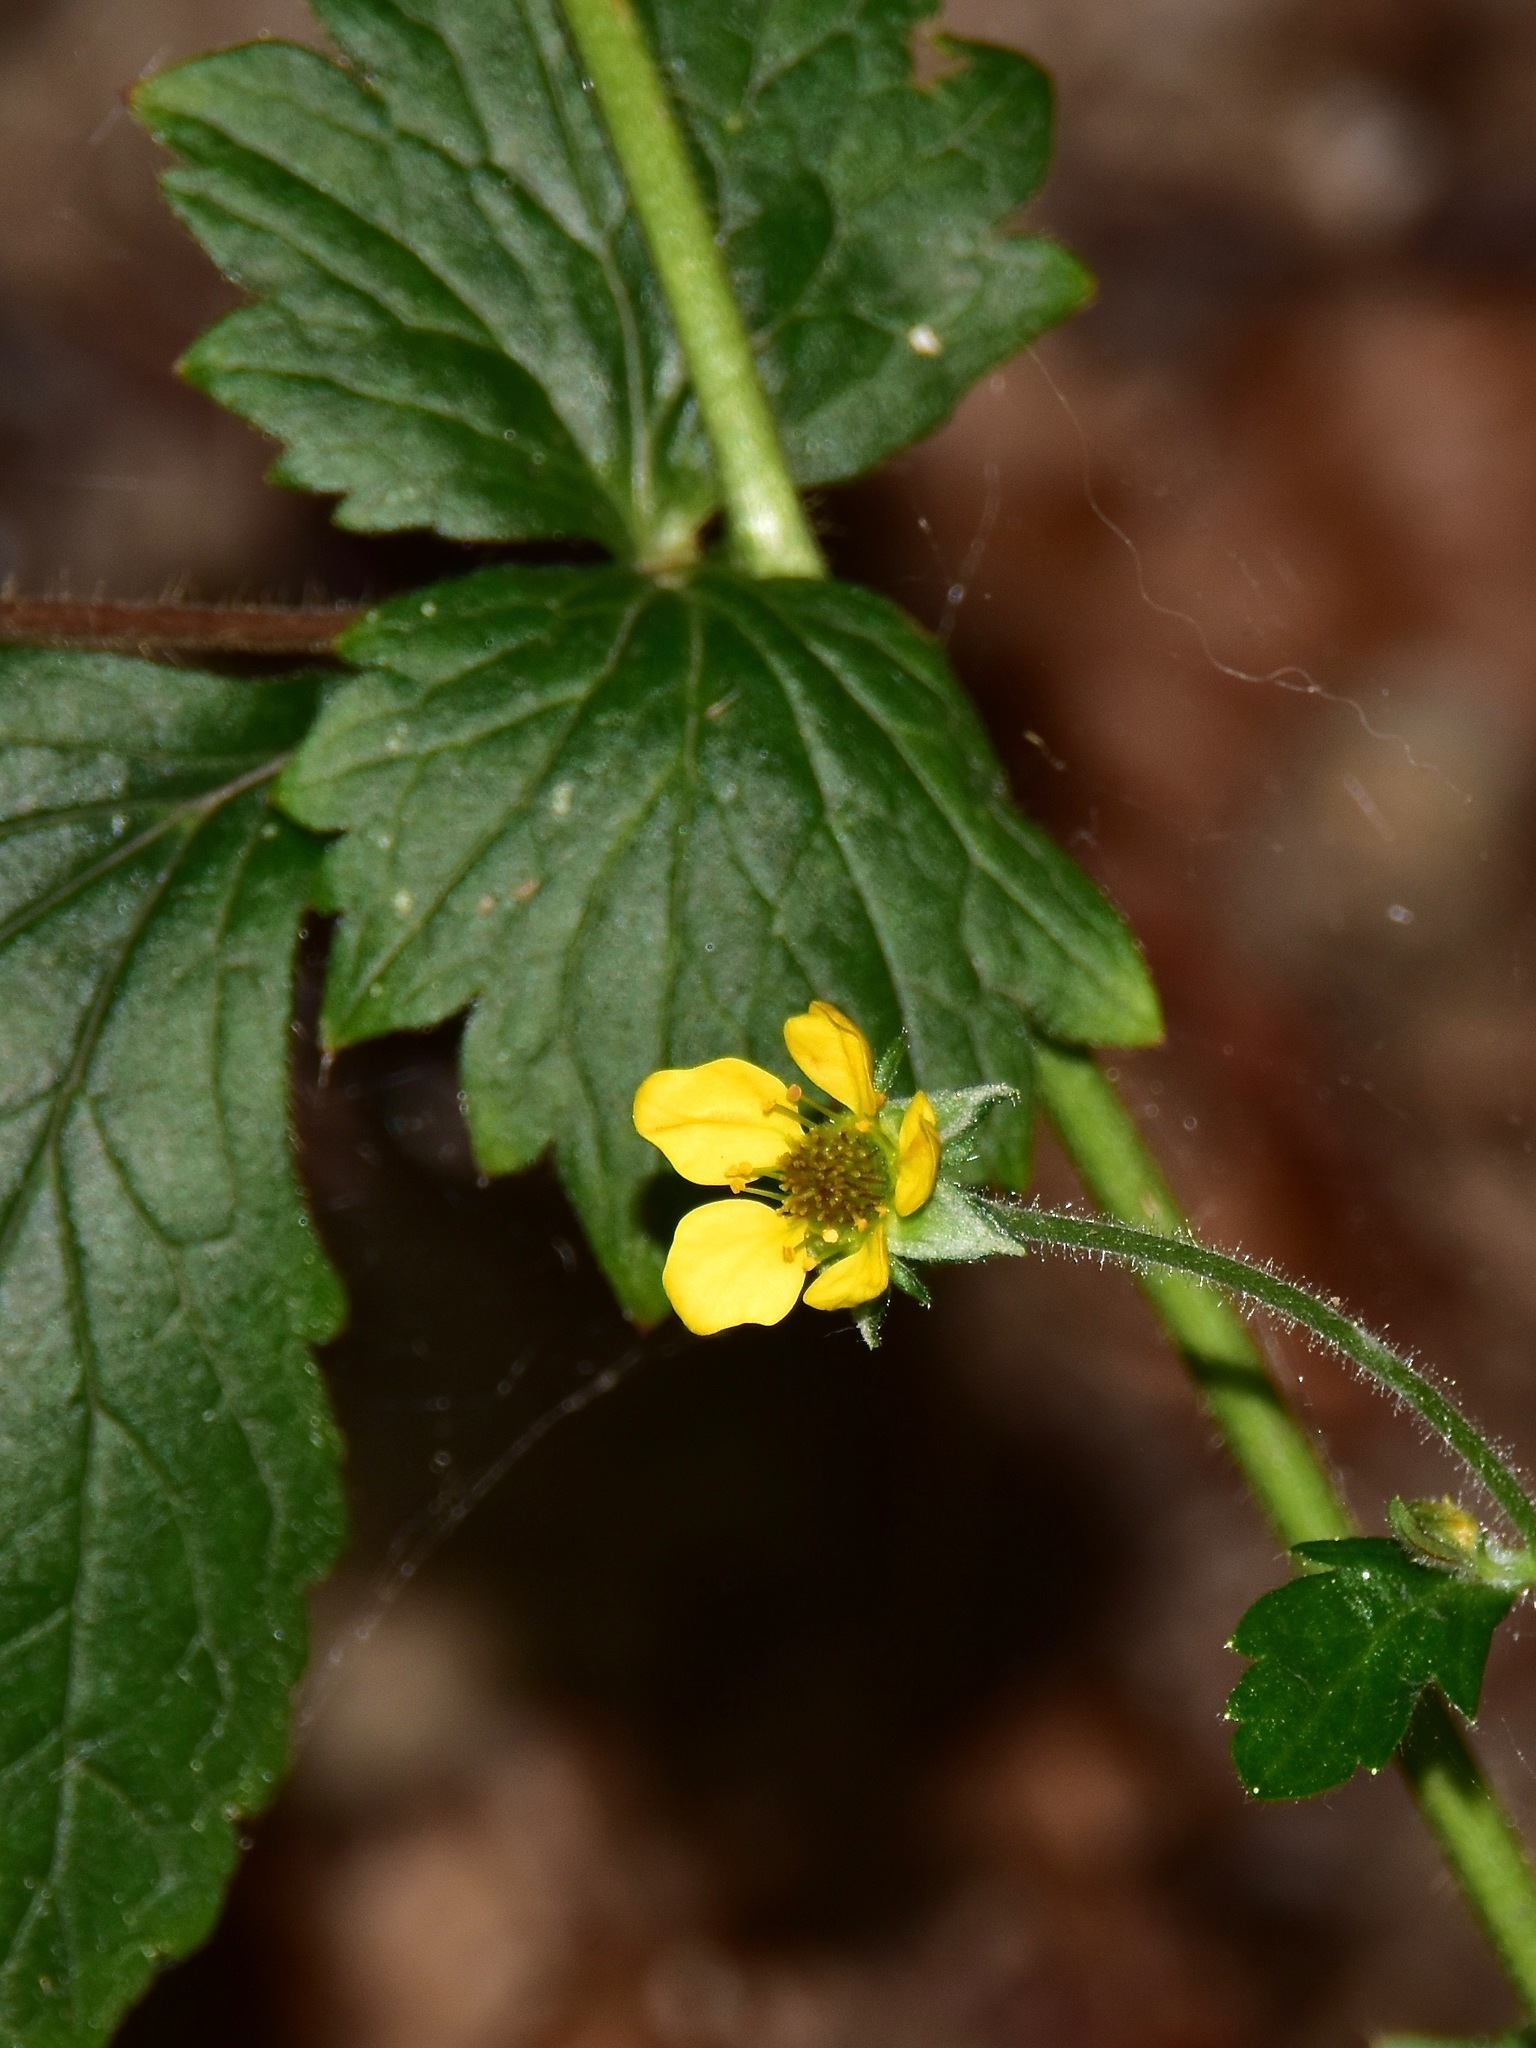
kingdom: Plantae
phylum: Tracheophyta
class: Magnoliopsida
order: Rosales
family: Rosaceae
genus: Geum
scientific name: Geum urbanum
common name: Wood avens
